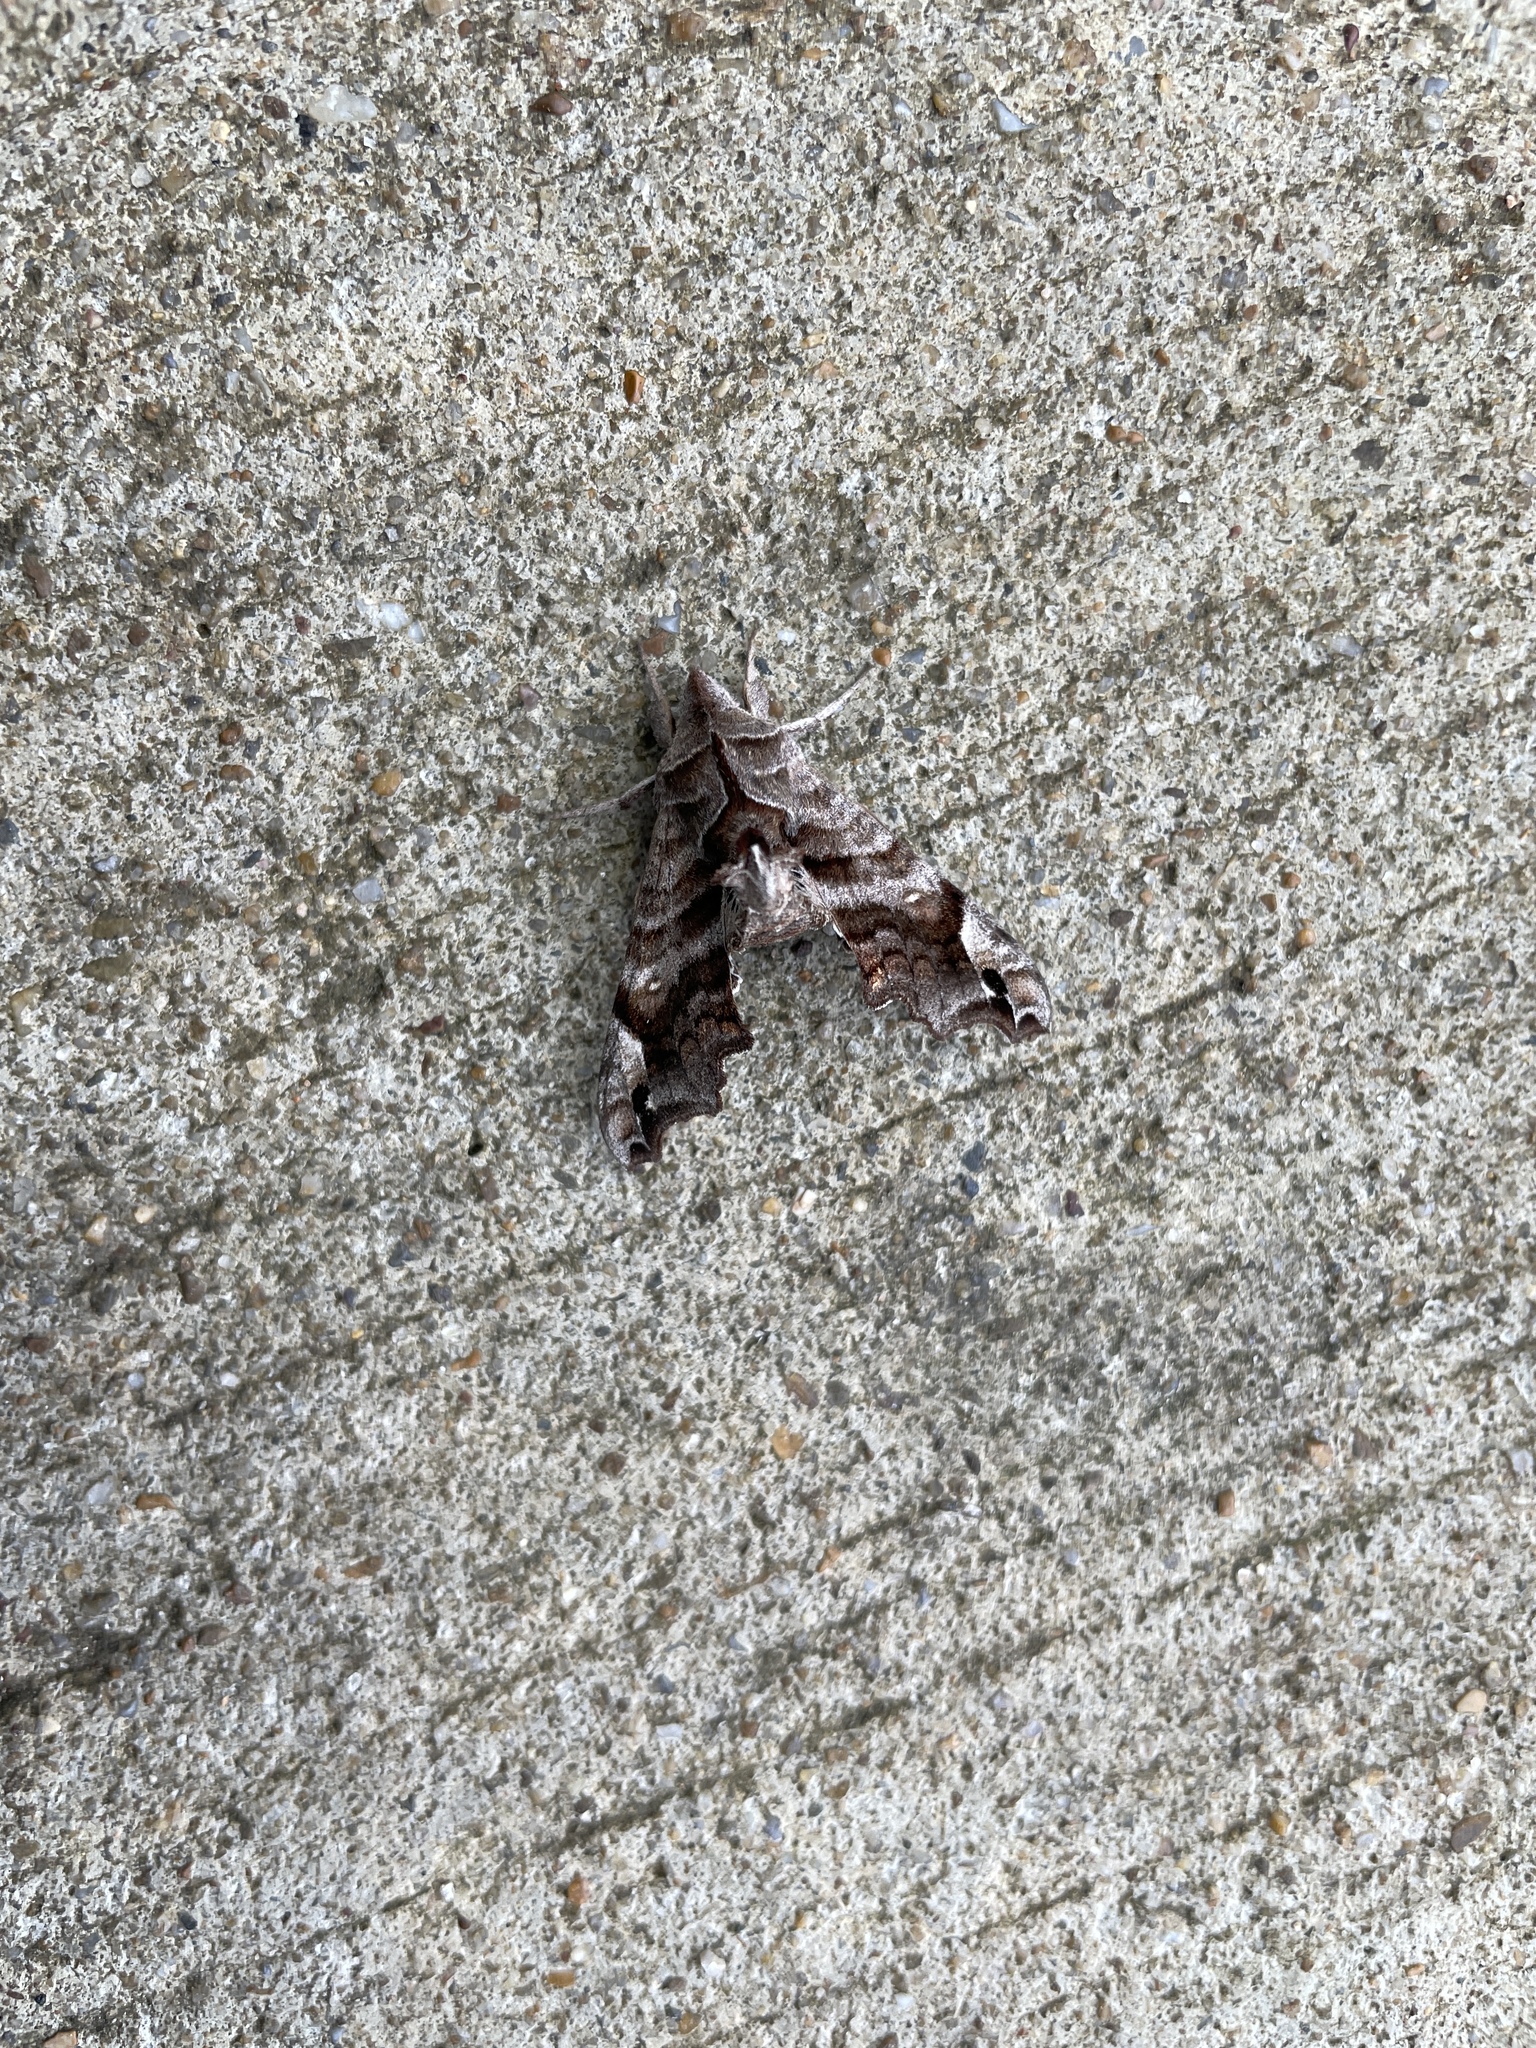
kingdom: Animalia
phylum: Arthropoda
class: Insecta
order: Lepidoptera
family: Sphingidae
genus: Deidamia
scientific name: Deidamia inscriptum
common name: Lettered sphinx
